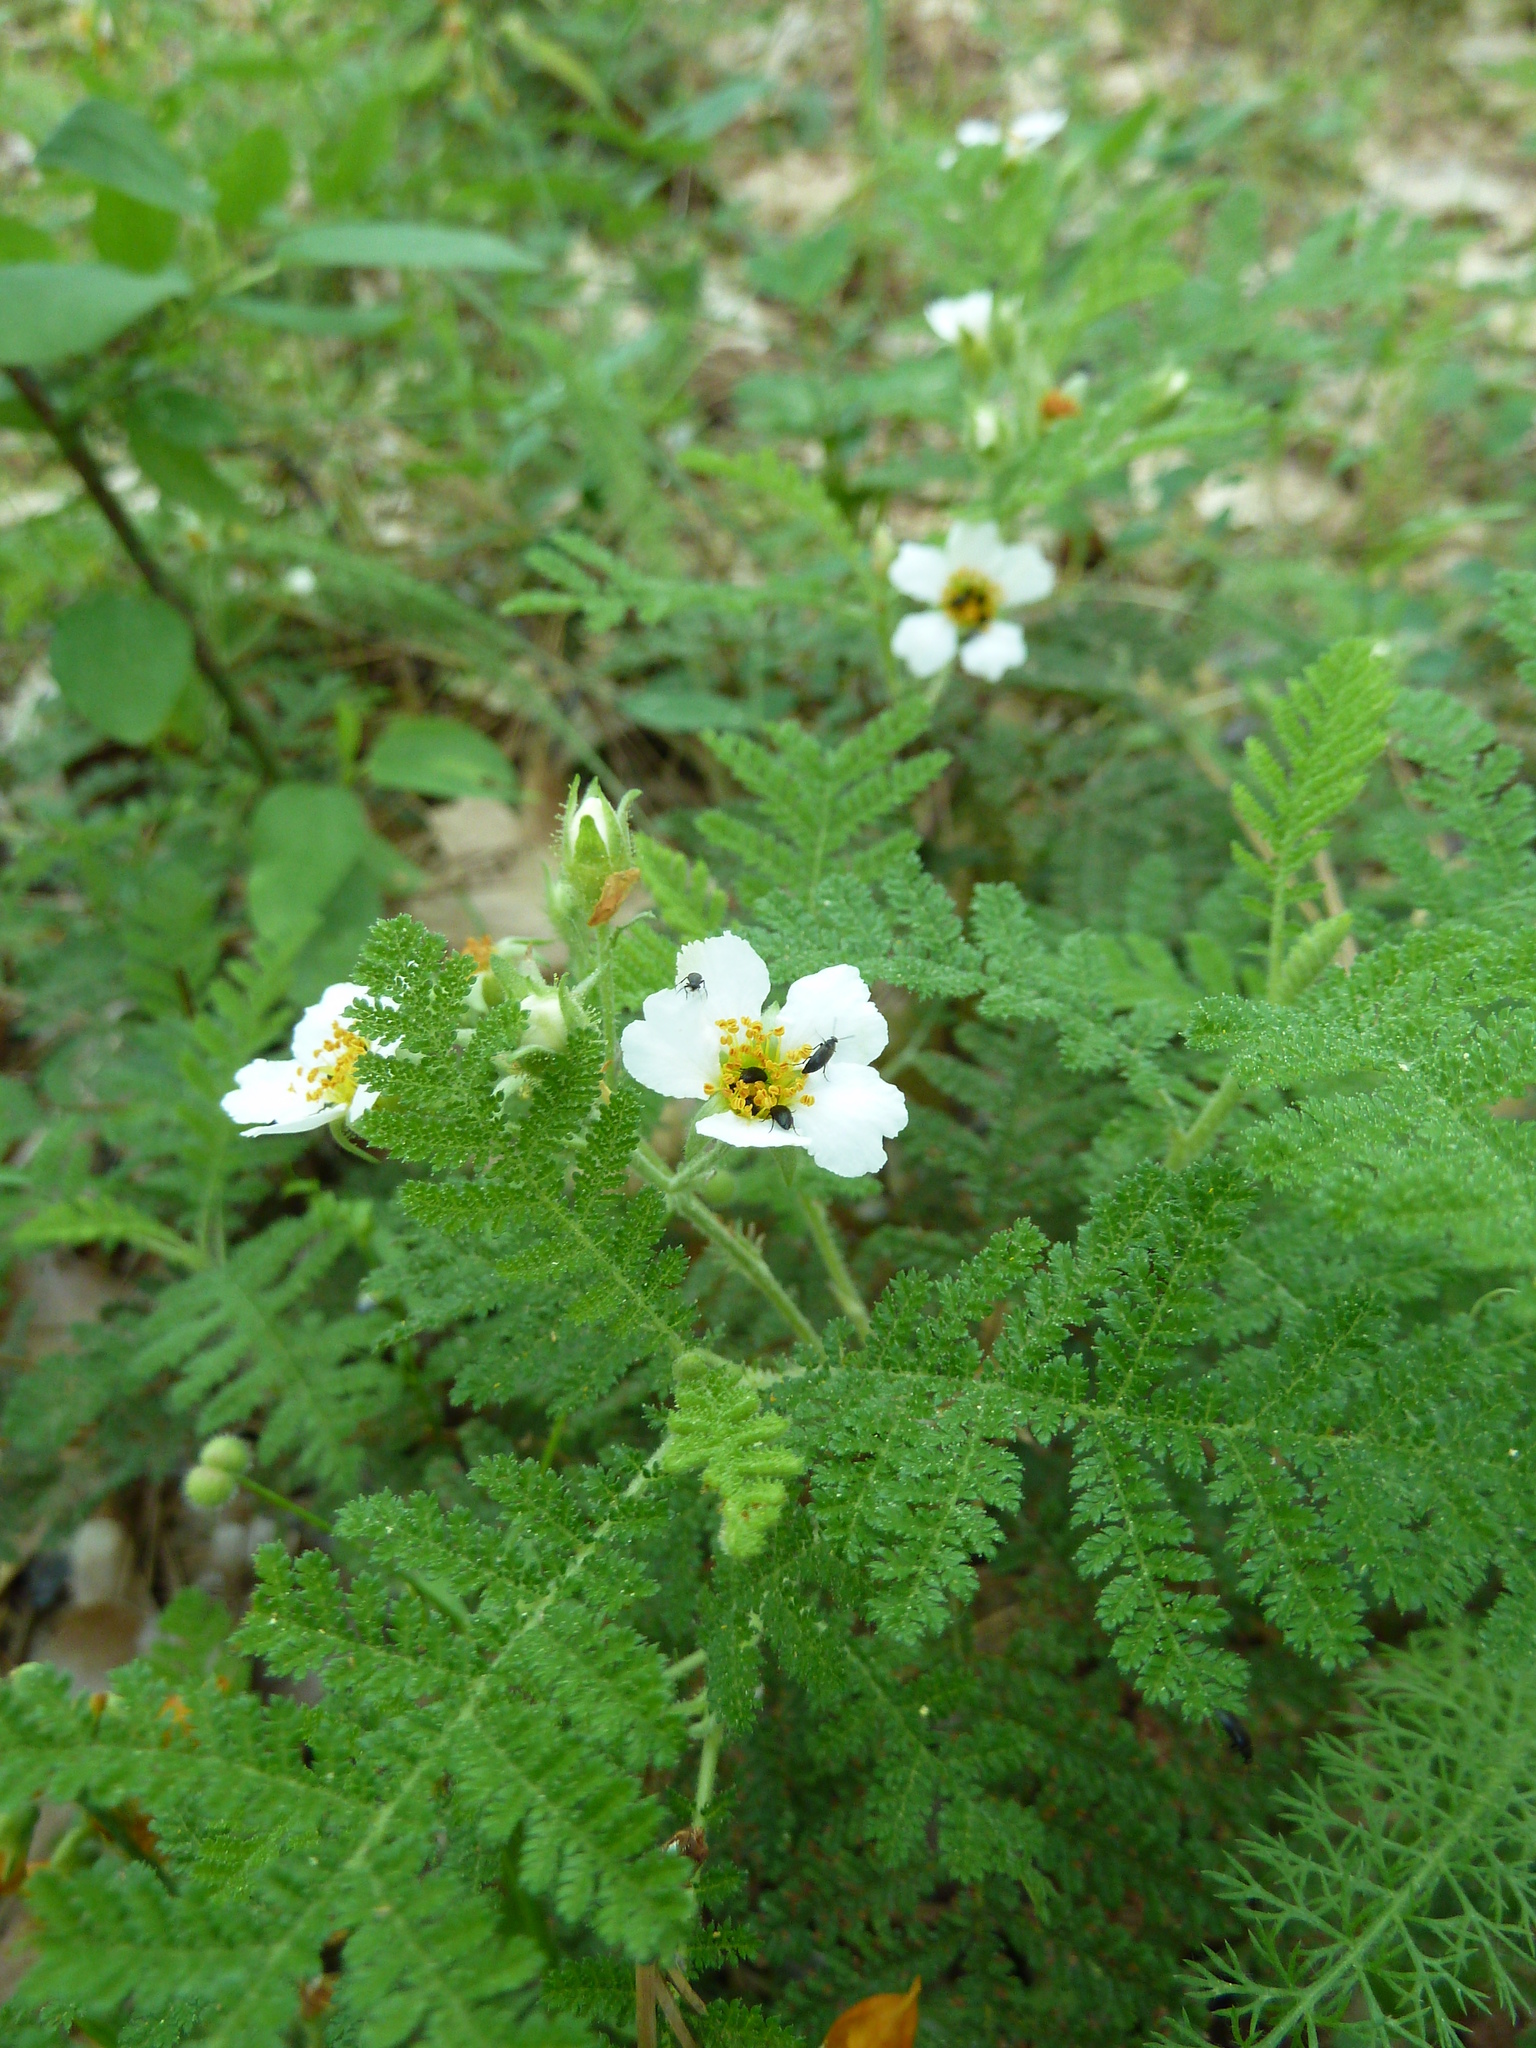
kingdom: Plantae
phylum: Tracheophyta
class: Magnoliopsida
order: Rosales
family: Rosaceae
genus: Chamaebatia
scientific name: Chamaebatia foliolosa
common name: Mountain misery
